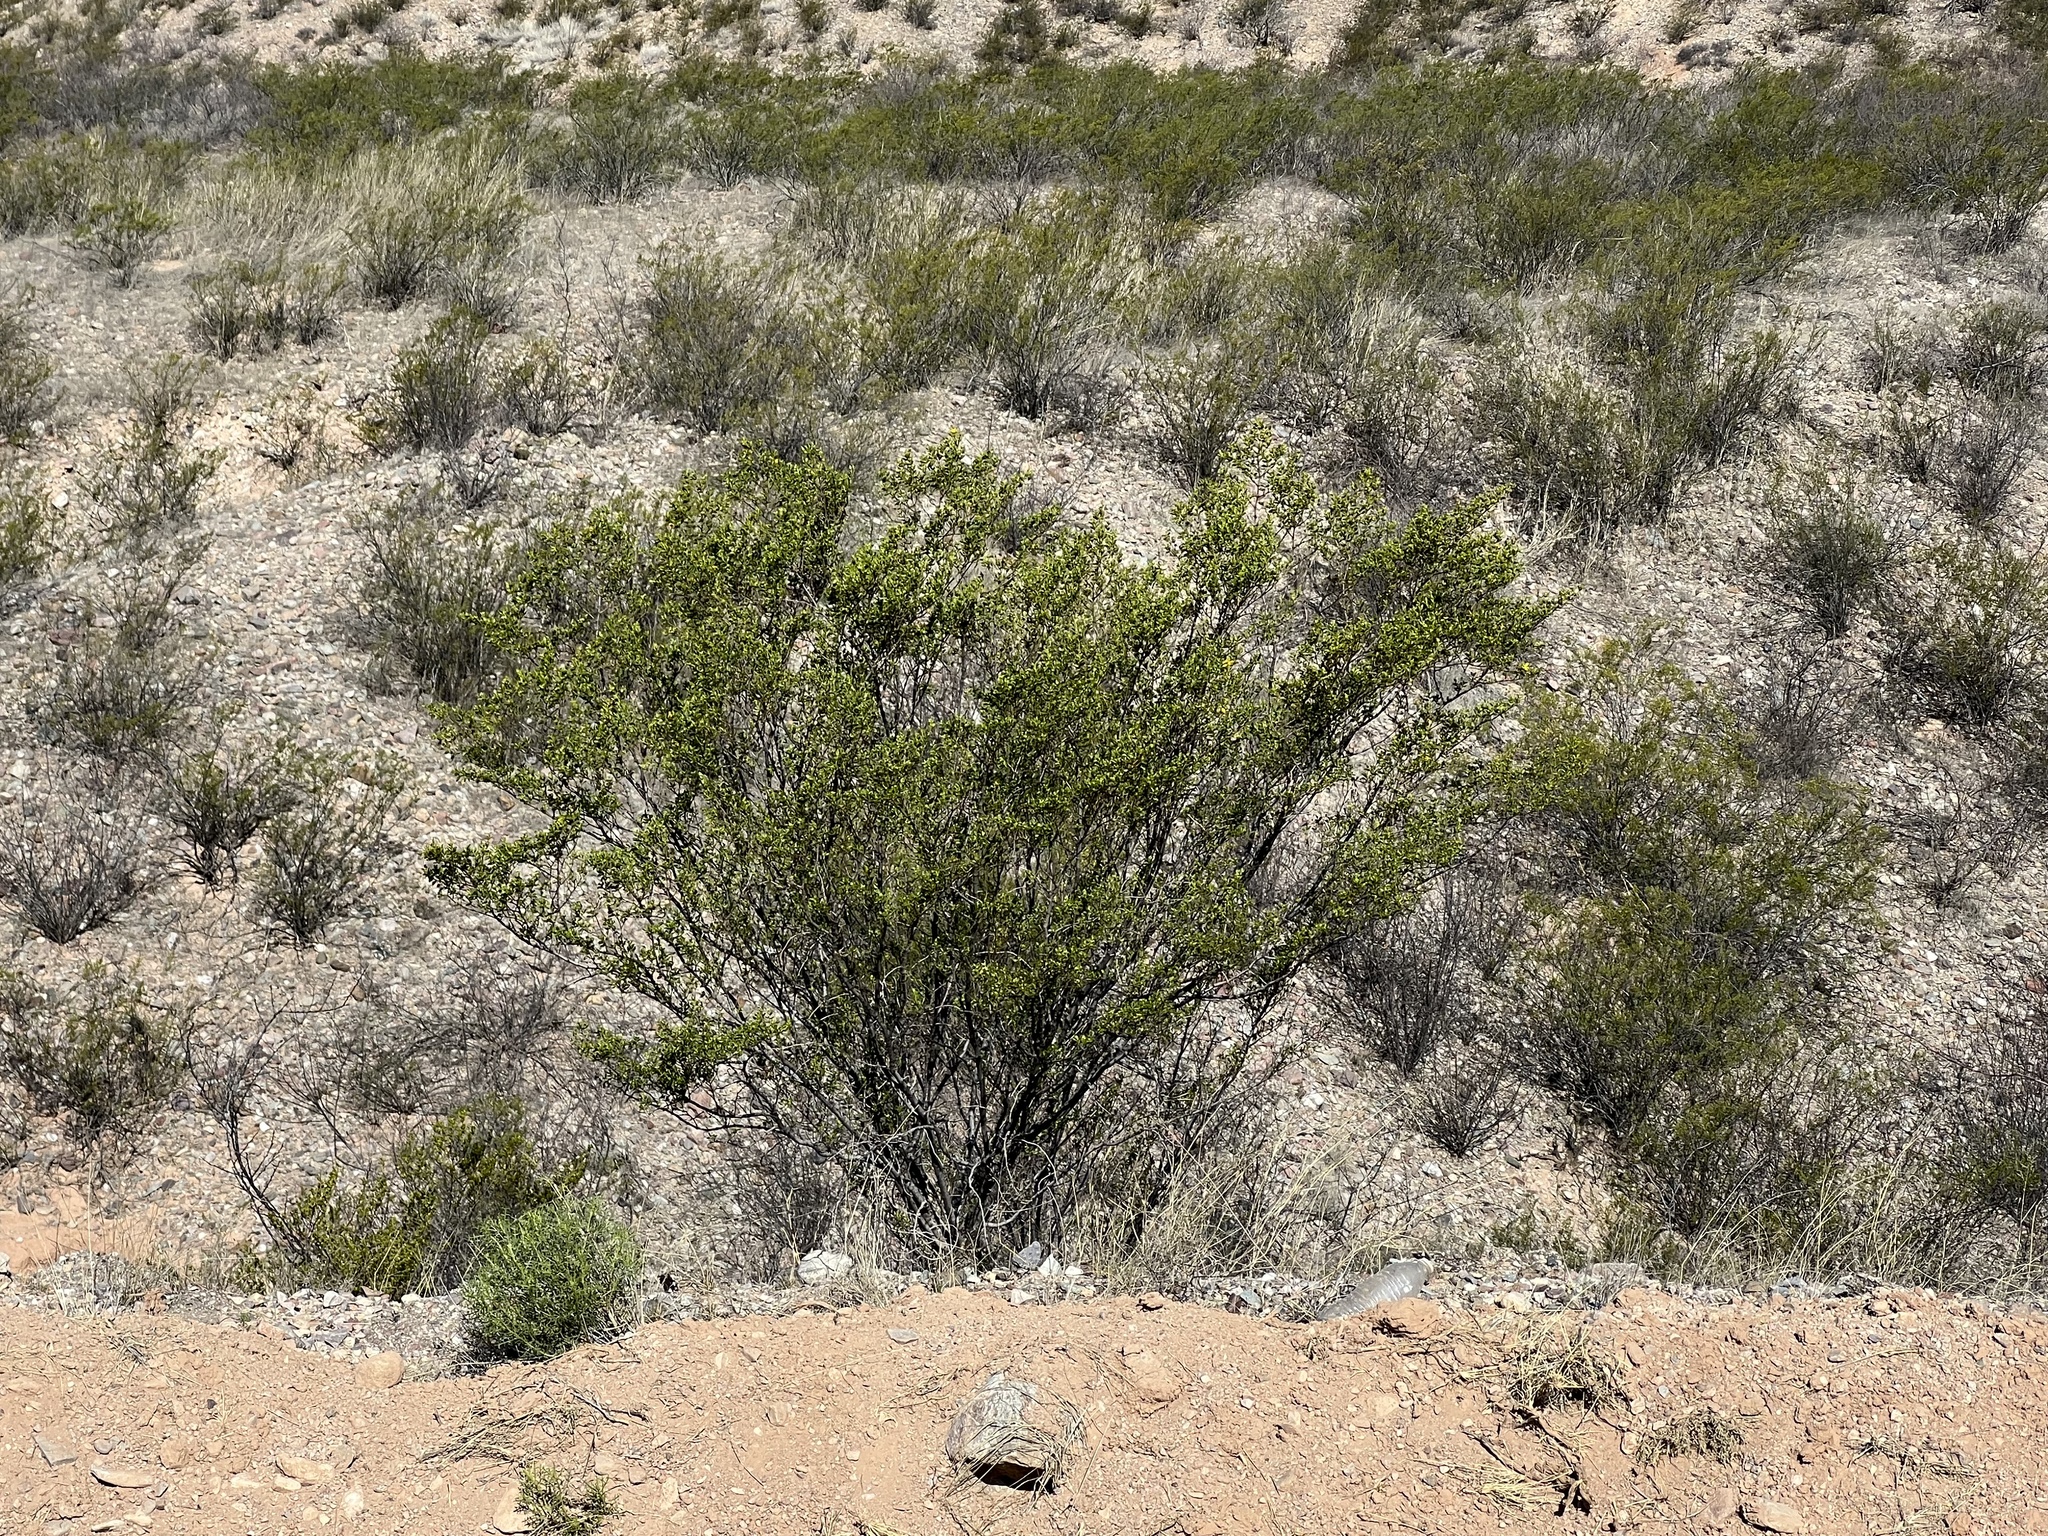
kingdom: Plantae
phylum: Tracheophyta
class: Magnoliopsida
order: Zygophyllales
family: Zygophyllaceae
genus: Larrea
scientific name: Larrea tridentata
